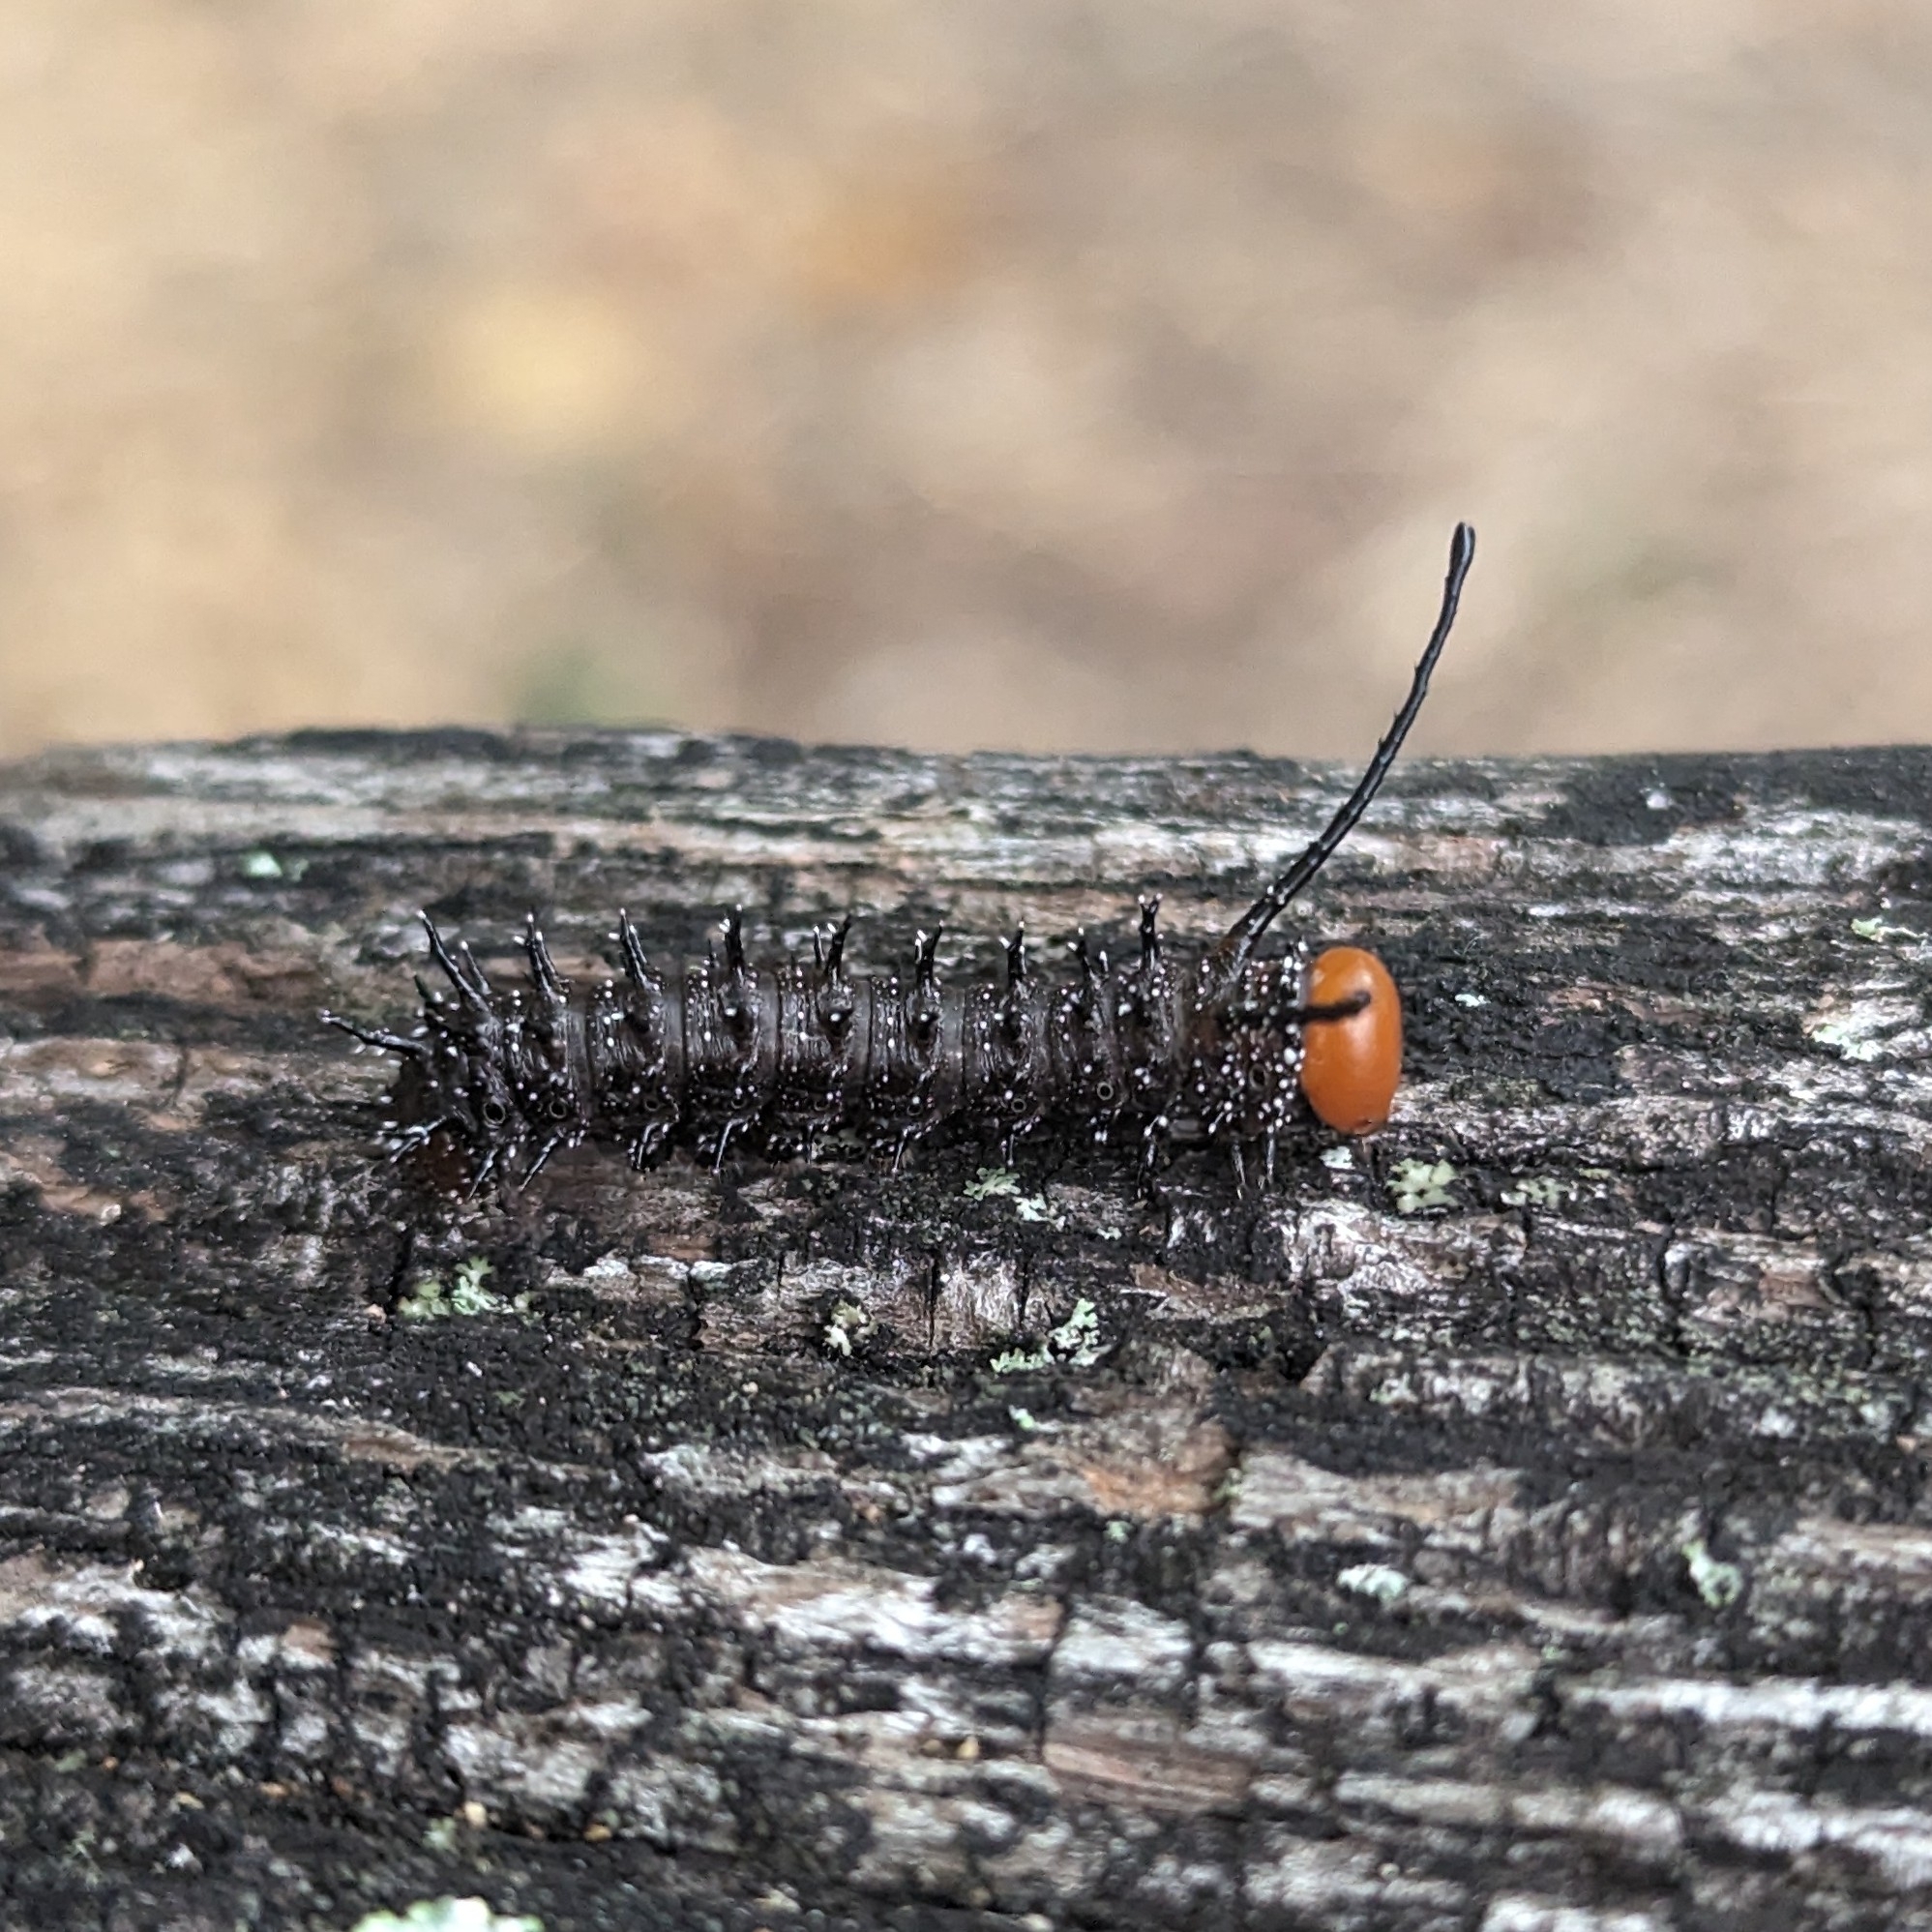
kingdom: Animalia
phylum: Arthropoda
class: Insecta
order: Lepidoptera
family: Saturniidae
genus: Anisota
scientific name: Anisota stigma
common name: Spiny oakworm moth
